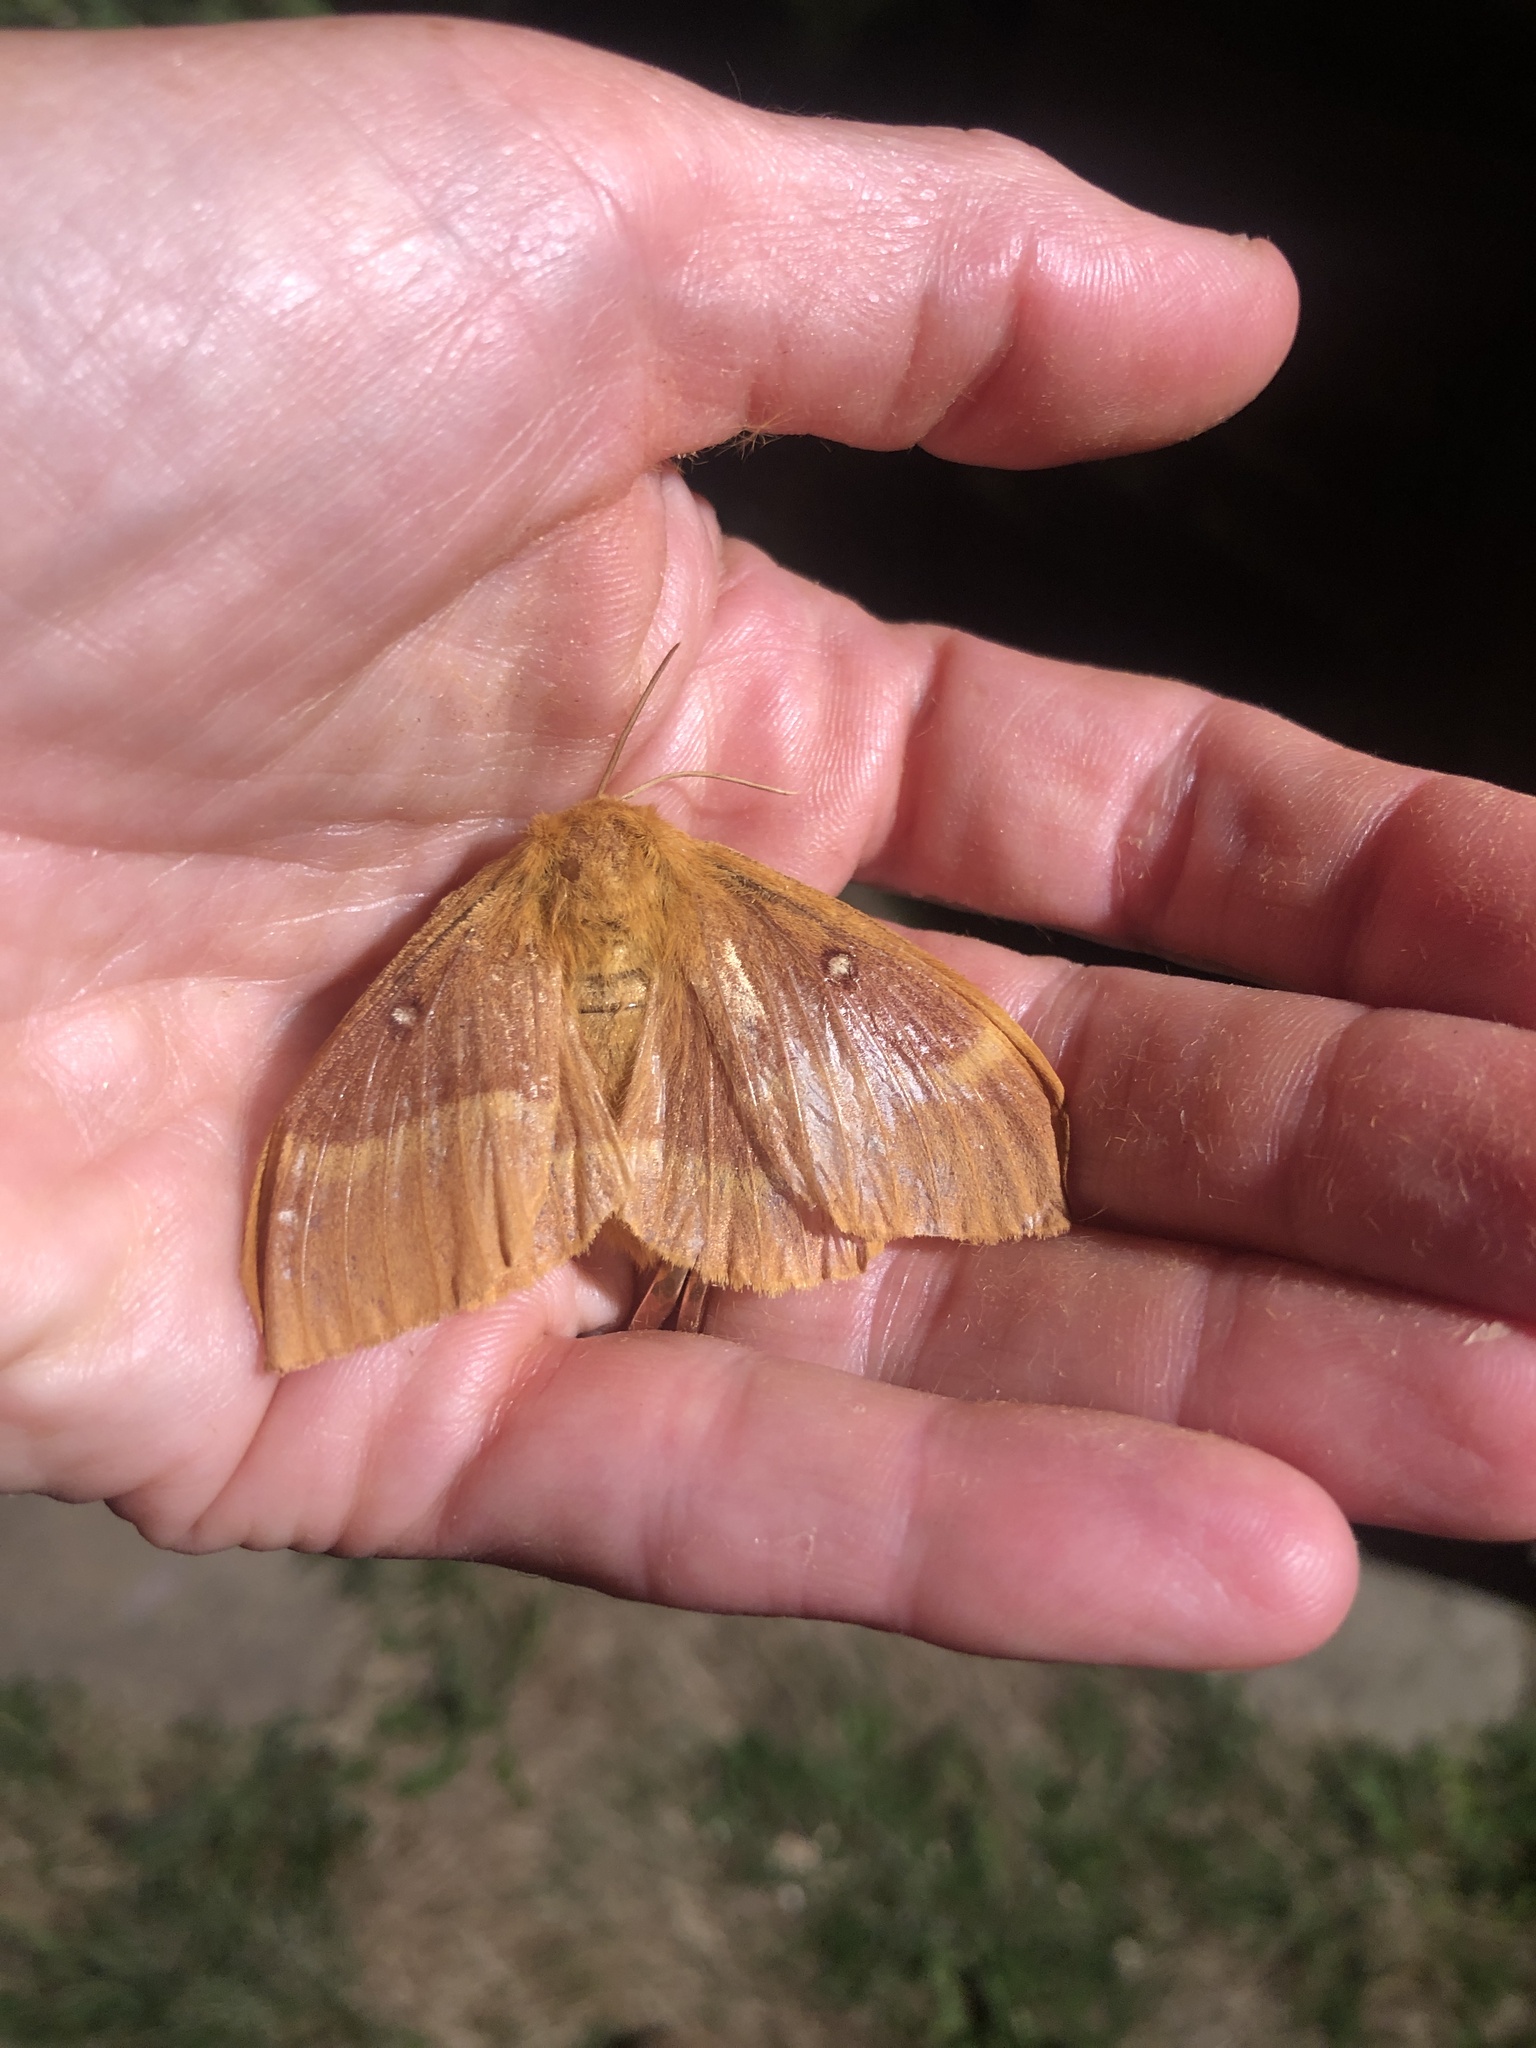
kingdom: Animalia
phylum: Arthropoda
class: Insecta
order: Lepidoptera
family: Lasiocampidae
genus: Lasiocampa
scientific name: Lasiocampa quercus
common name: Oak eggar
